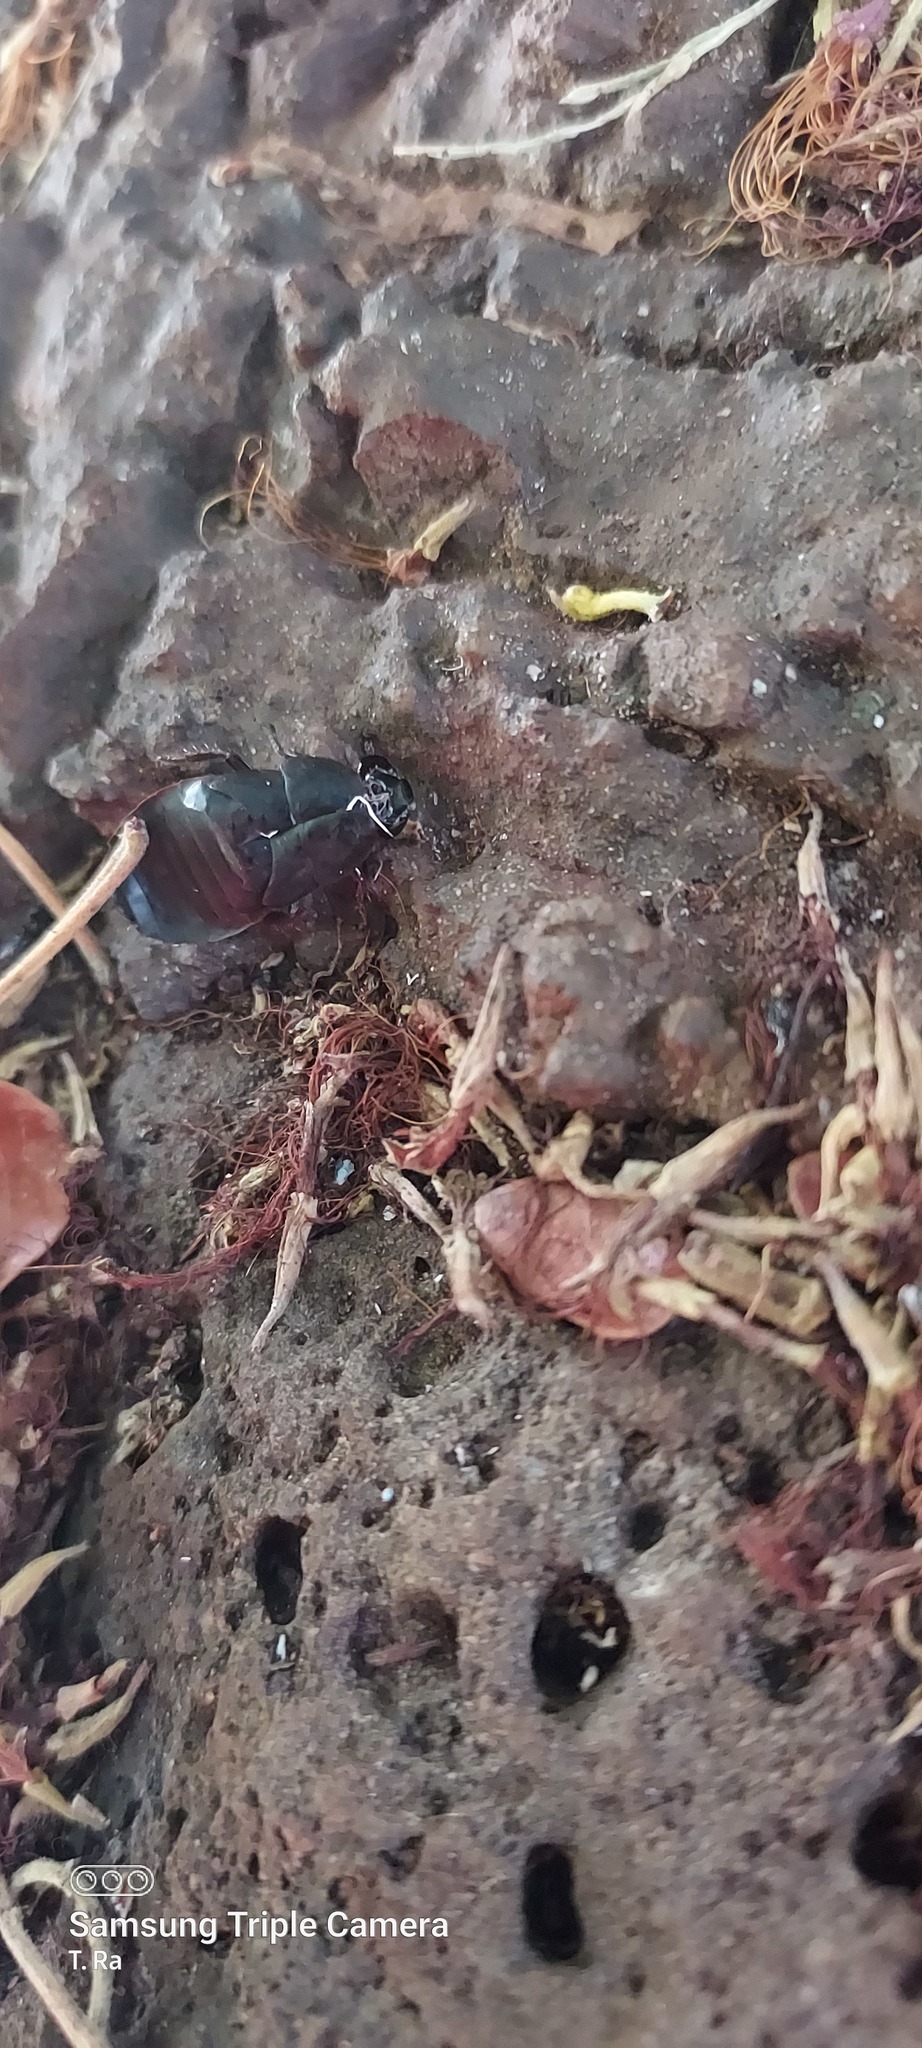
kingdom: Animalia
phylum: Arthropoda
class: Insecta
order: Blattodea
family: Blaberidae
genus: Diploptera
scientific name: Diploptera punctata
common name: Pacific beetle cockroach
